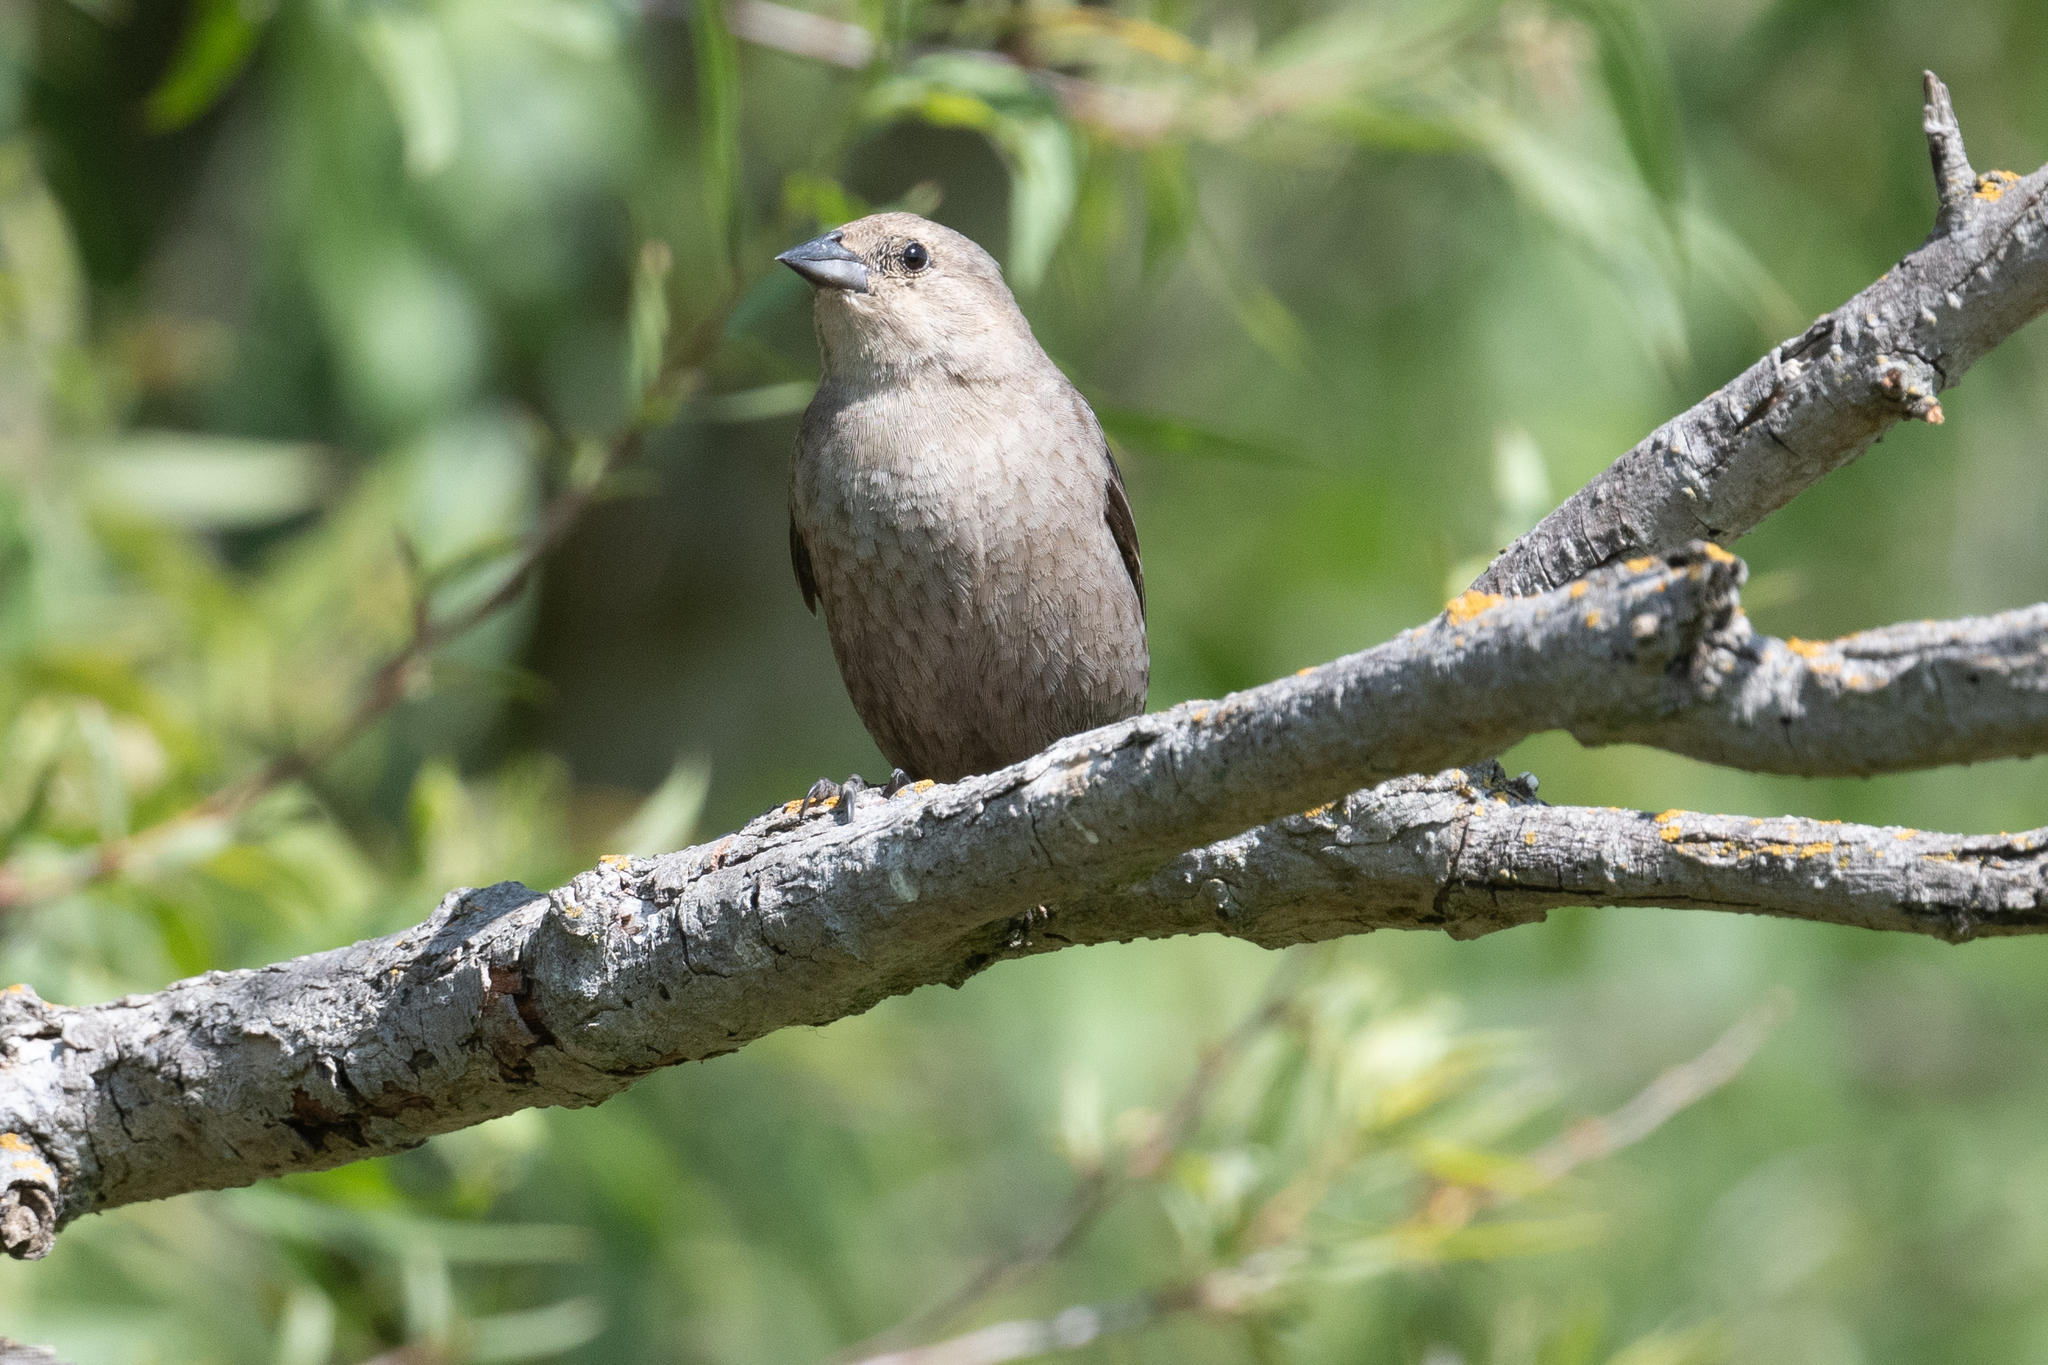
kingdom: Animalia
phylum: Chordata
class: Aves
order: Passeriformes
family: Icteridae
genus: Molothrus
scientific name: Molothrus ater
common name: Brown-headed cowbird
